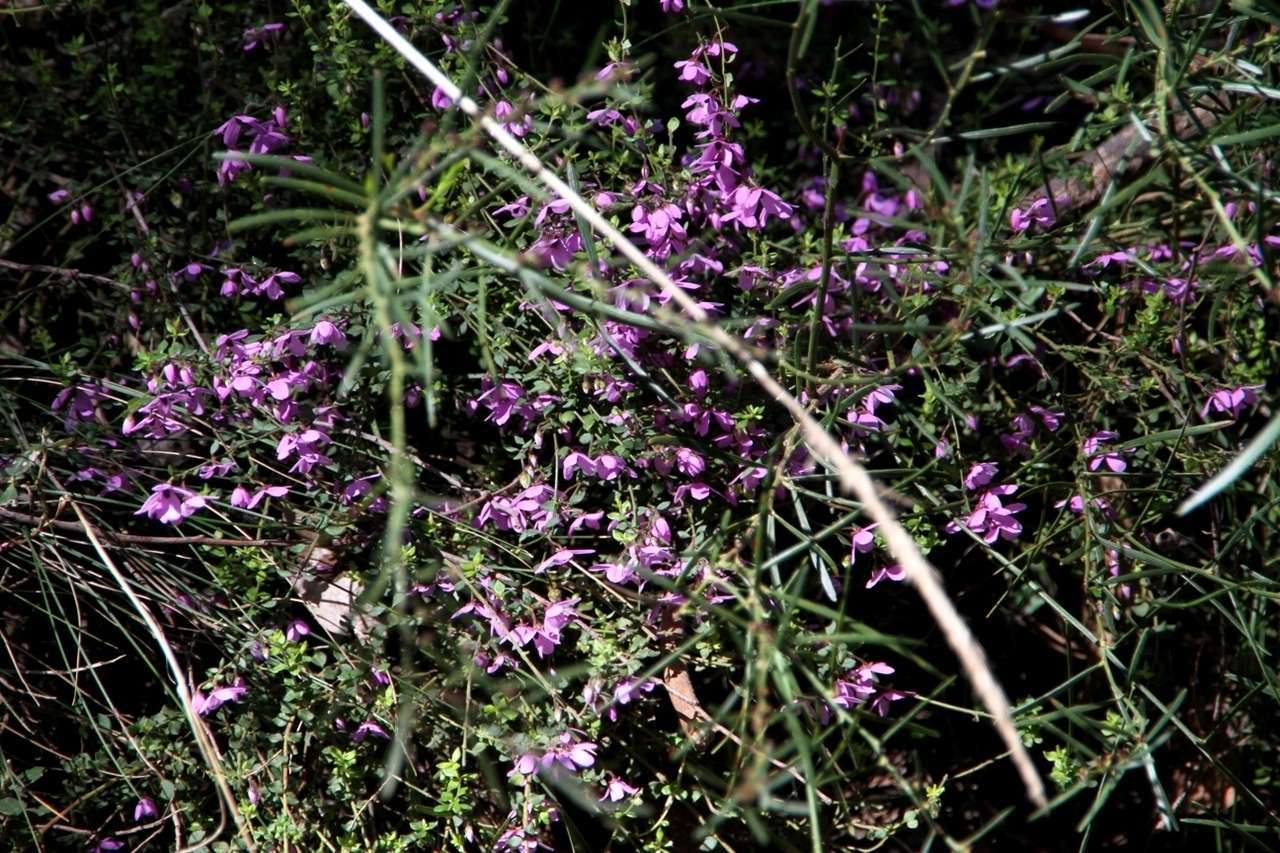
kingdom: Plantae
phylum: Tracheophyta
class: Magnoliopsida
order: Oxalidales
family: Elaeocarpaceae
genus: Tetratheca
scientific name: Tetratheca ciliata
